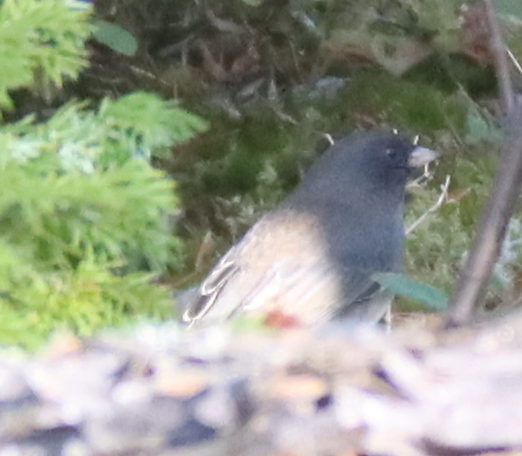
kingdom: Animalia
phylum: Chordata
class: Aves
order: Passeriformes
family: Passerellidae
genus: Junco
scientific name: Junco hyemalis
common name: Dark-eyed junco
